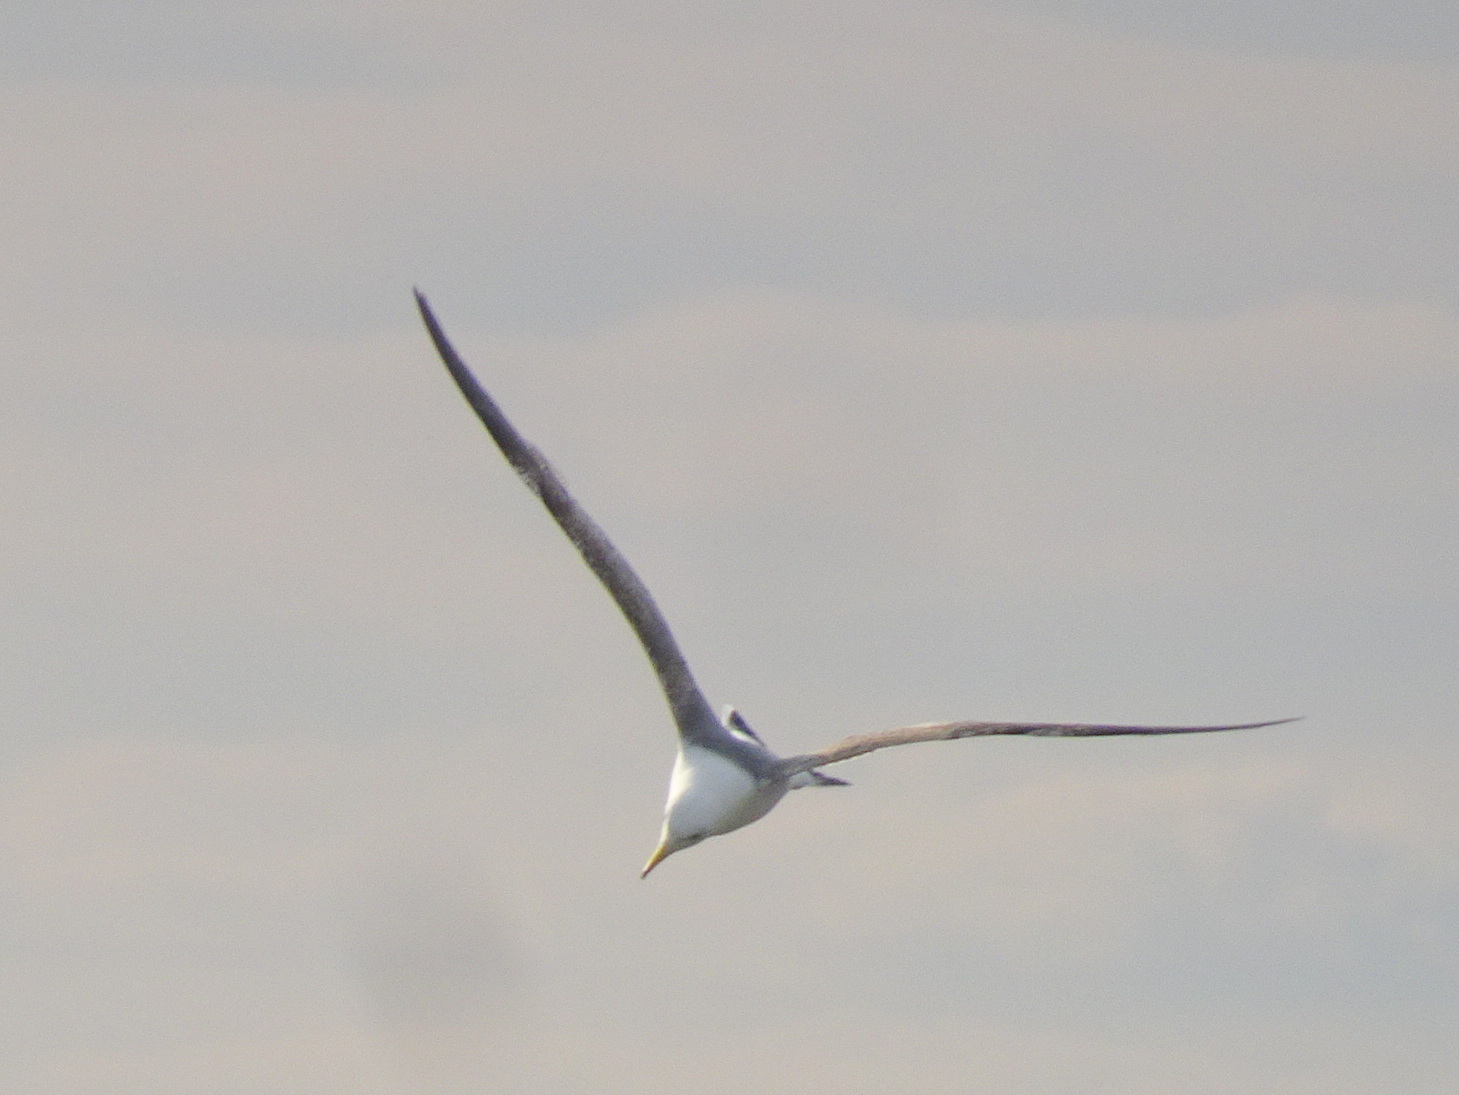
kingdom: Animalia
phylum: Chordata
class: Aves
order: Charadriiformes
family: Laridae
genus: Larus
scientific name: Larus fuscus
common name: Lesser black-backed gull
